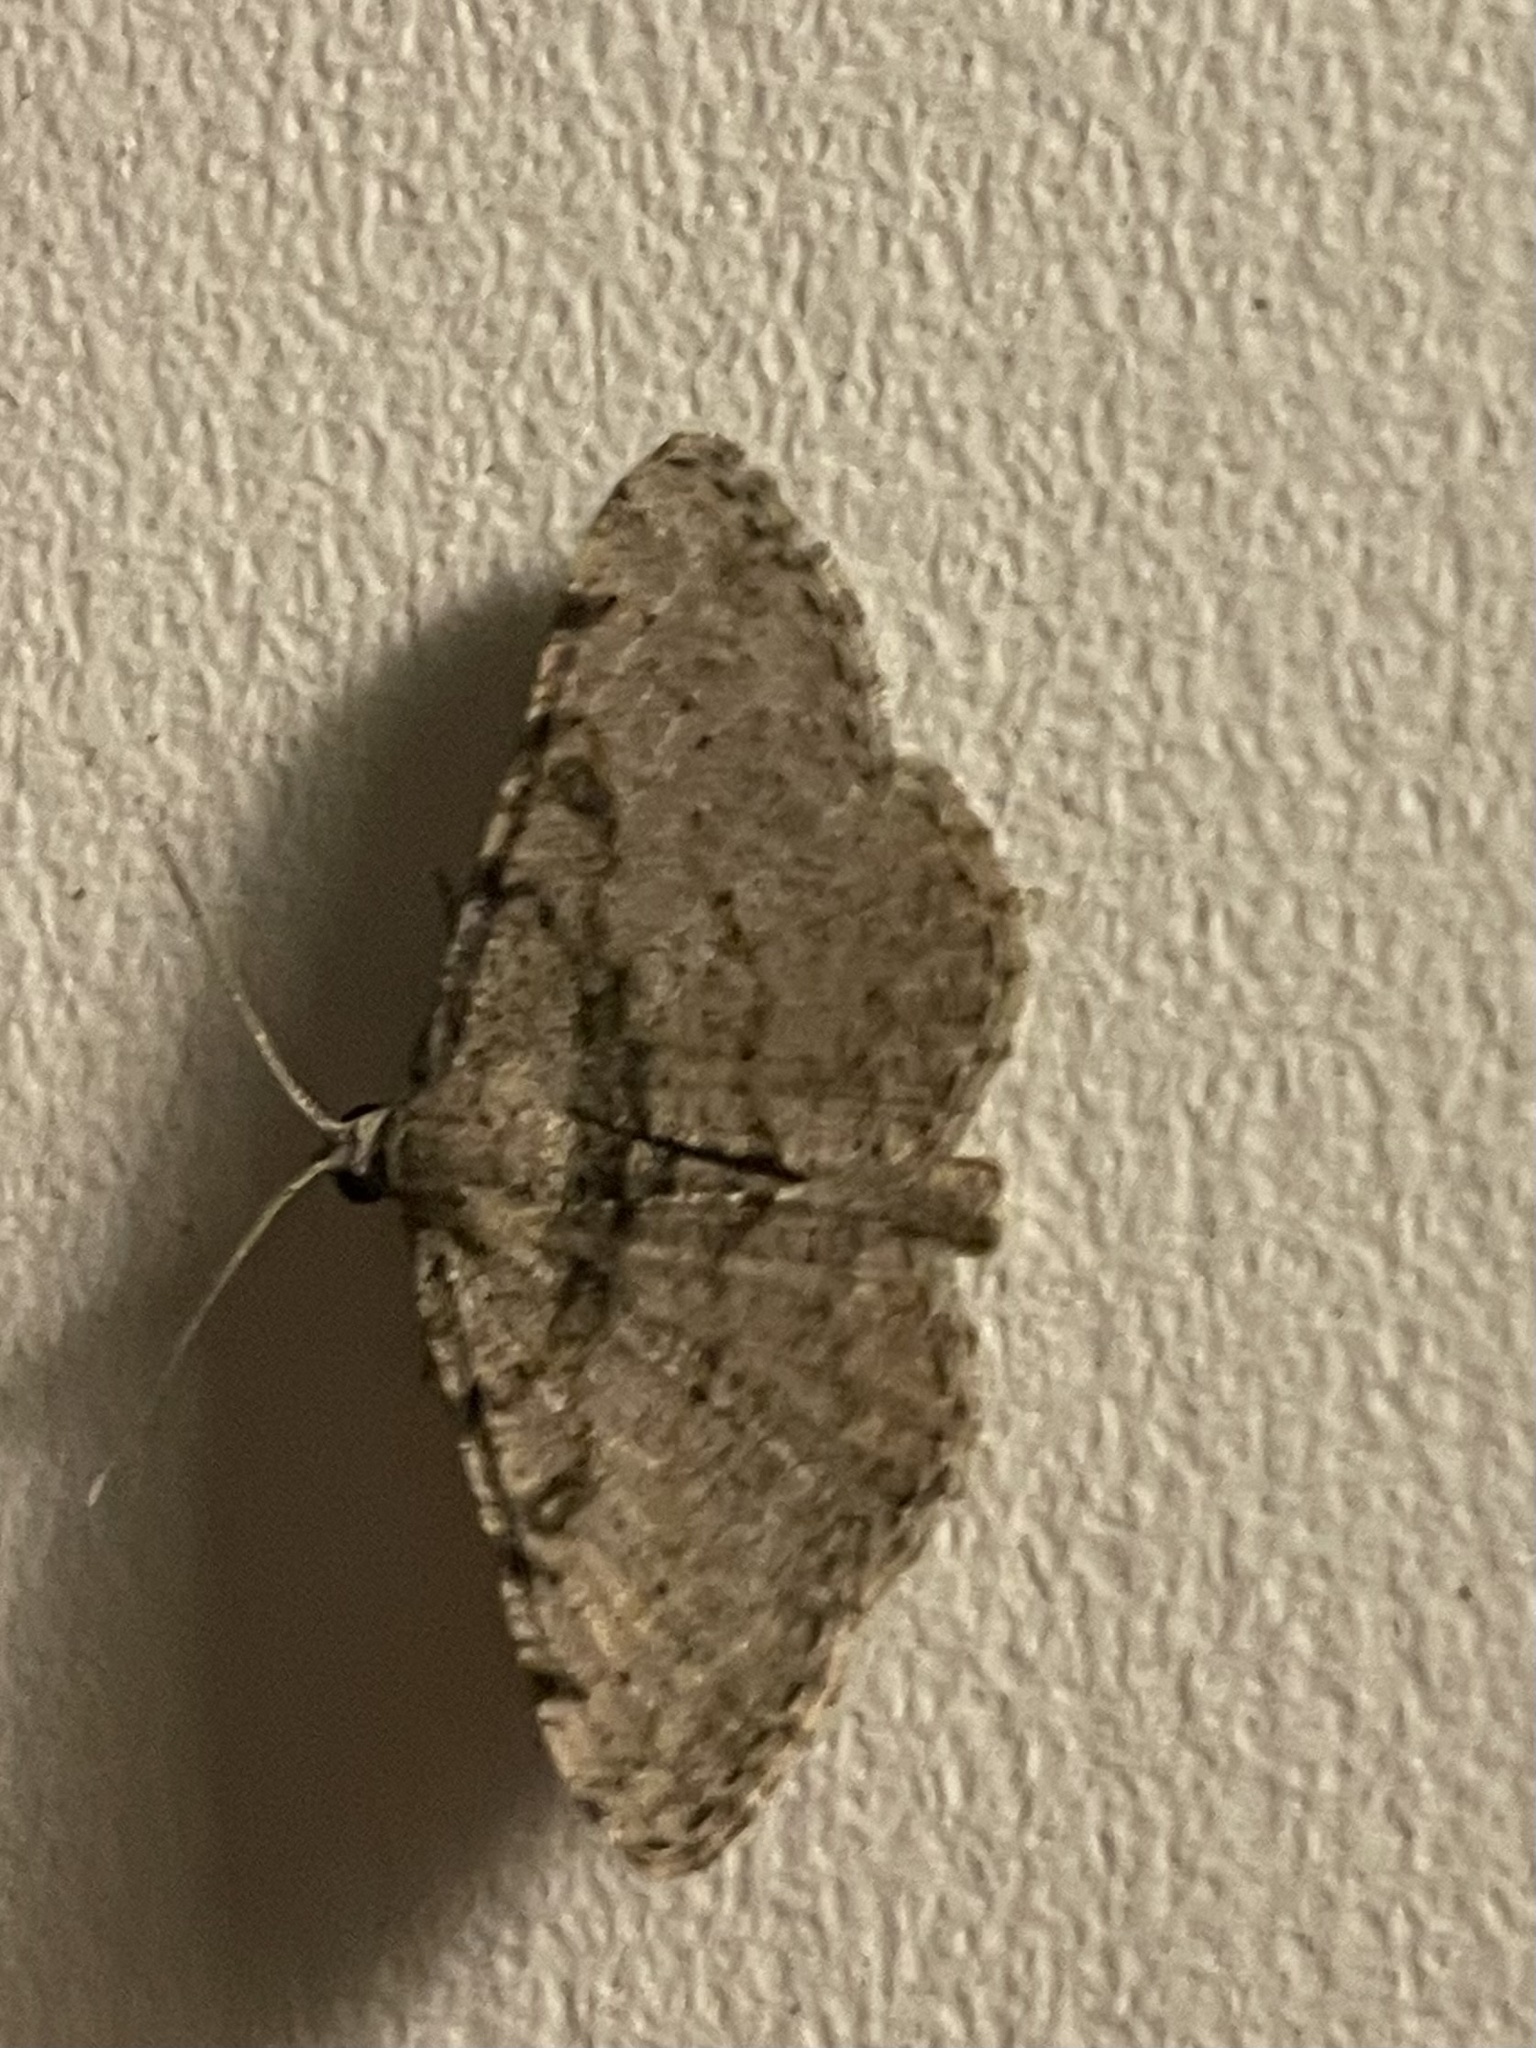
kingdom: Animalia
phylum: Arthropoda
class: Insecta
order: Lepidoptera
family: Geometridae
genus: Digrammia
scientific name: Digrammia gnophosaria
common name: Hollow-spotted angle
